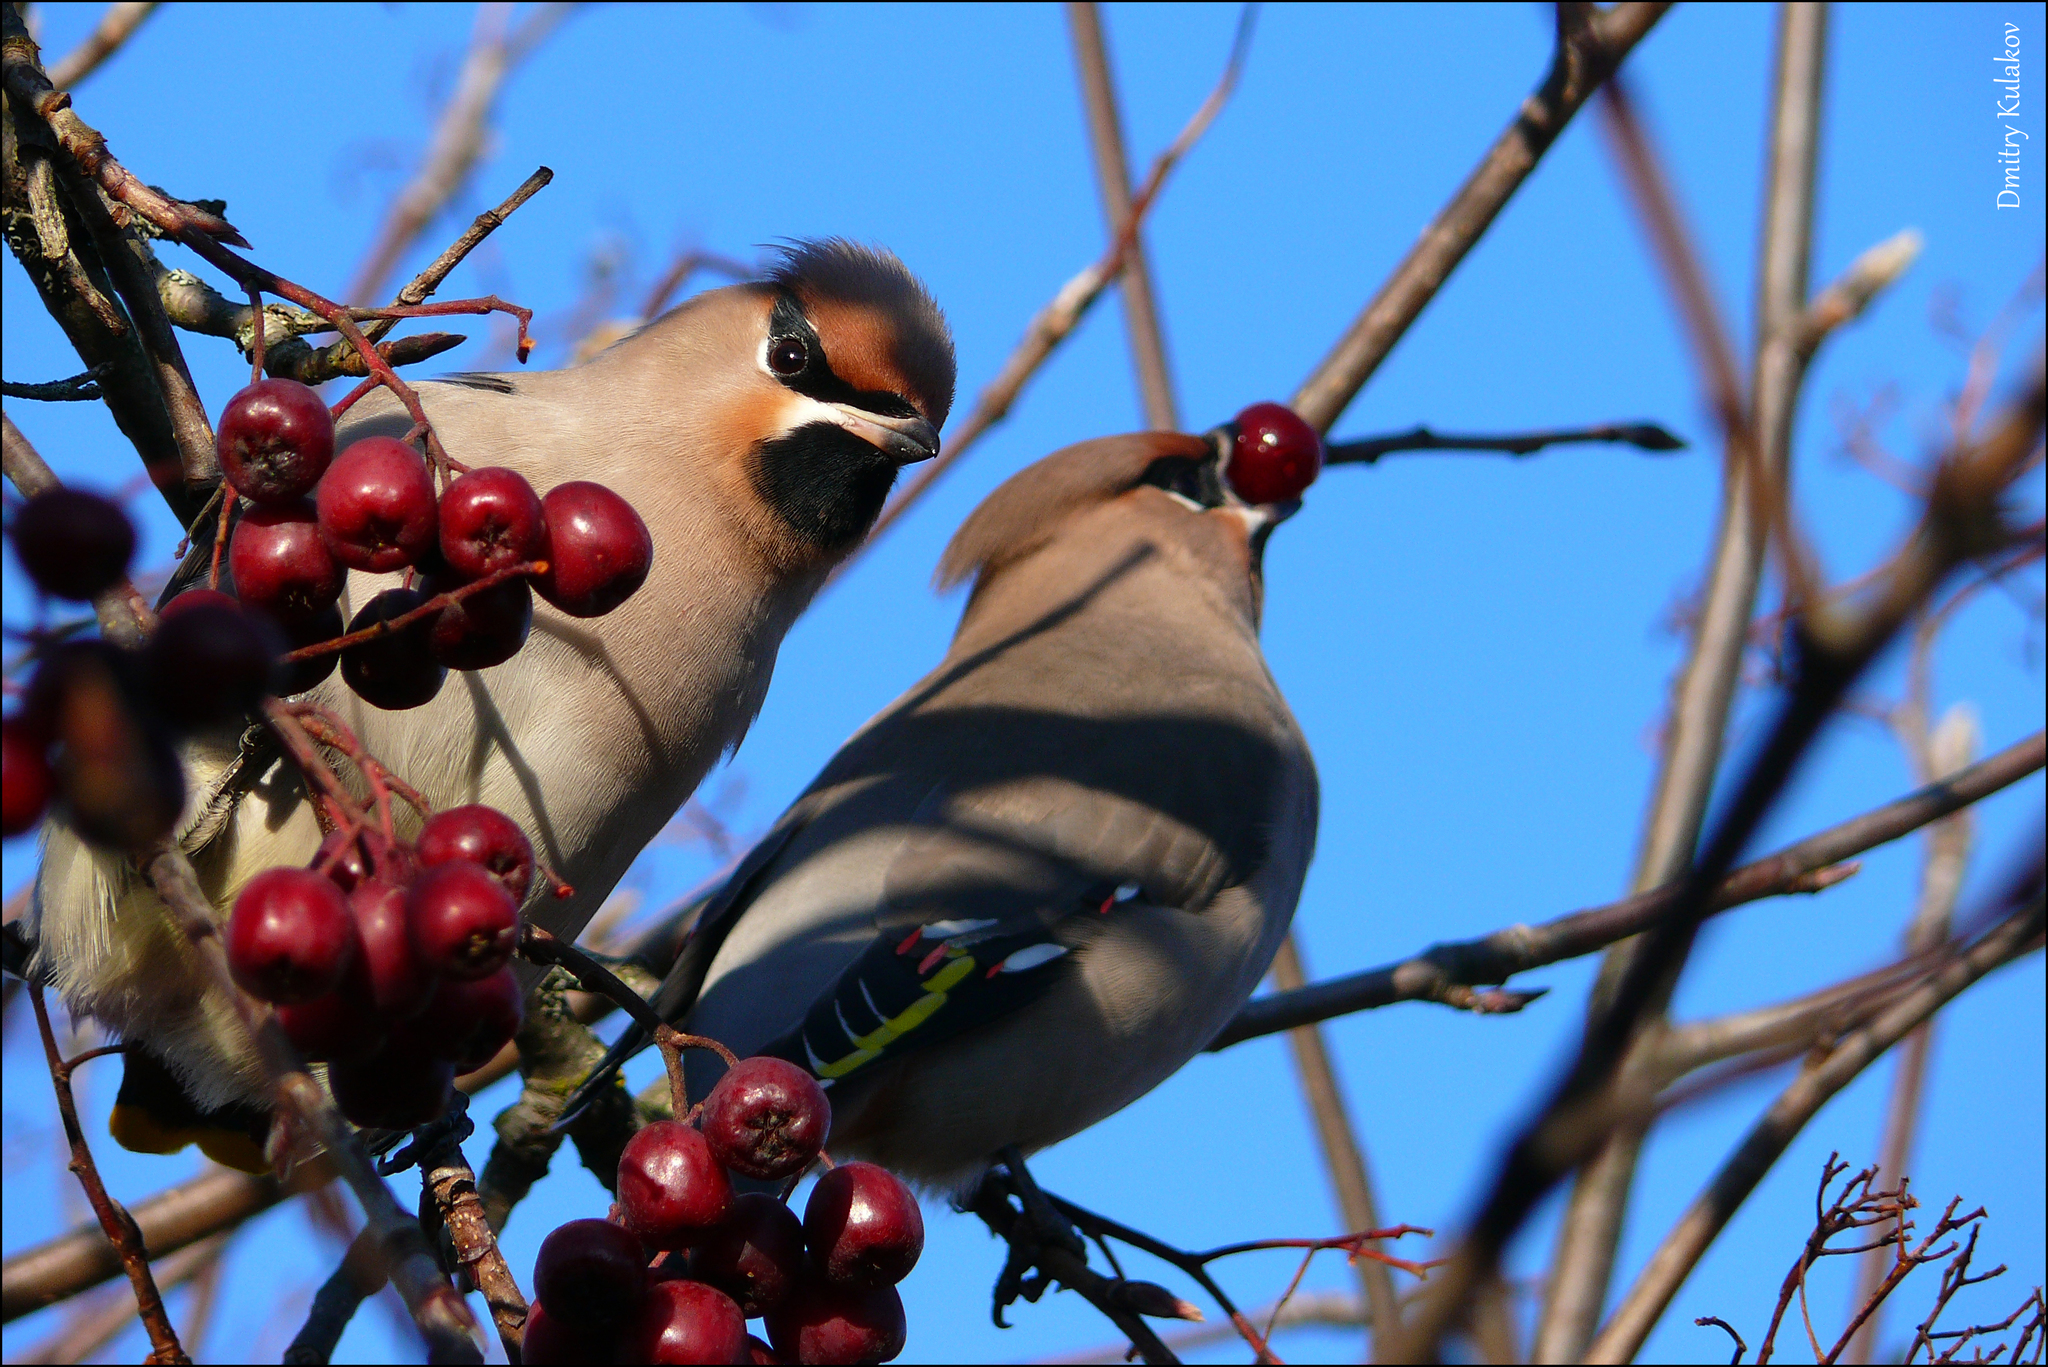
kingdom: Animalia
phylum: Chordata
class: Aves
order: Passeriformes
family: Bombycillidae
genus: Bombycilla
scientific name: Bombycilla garrulus
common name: Bohemian waxwing
